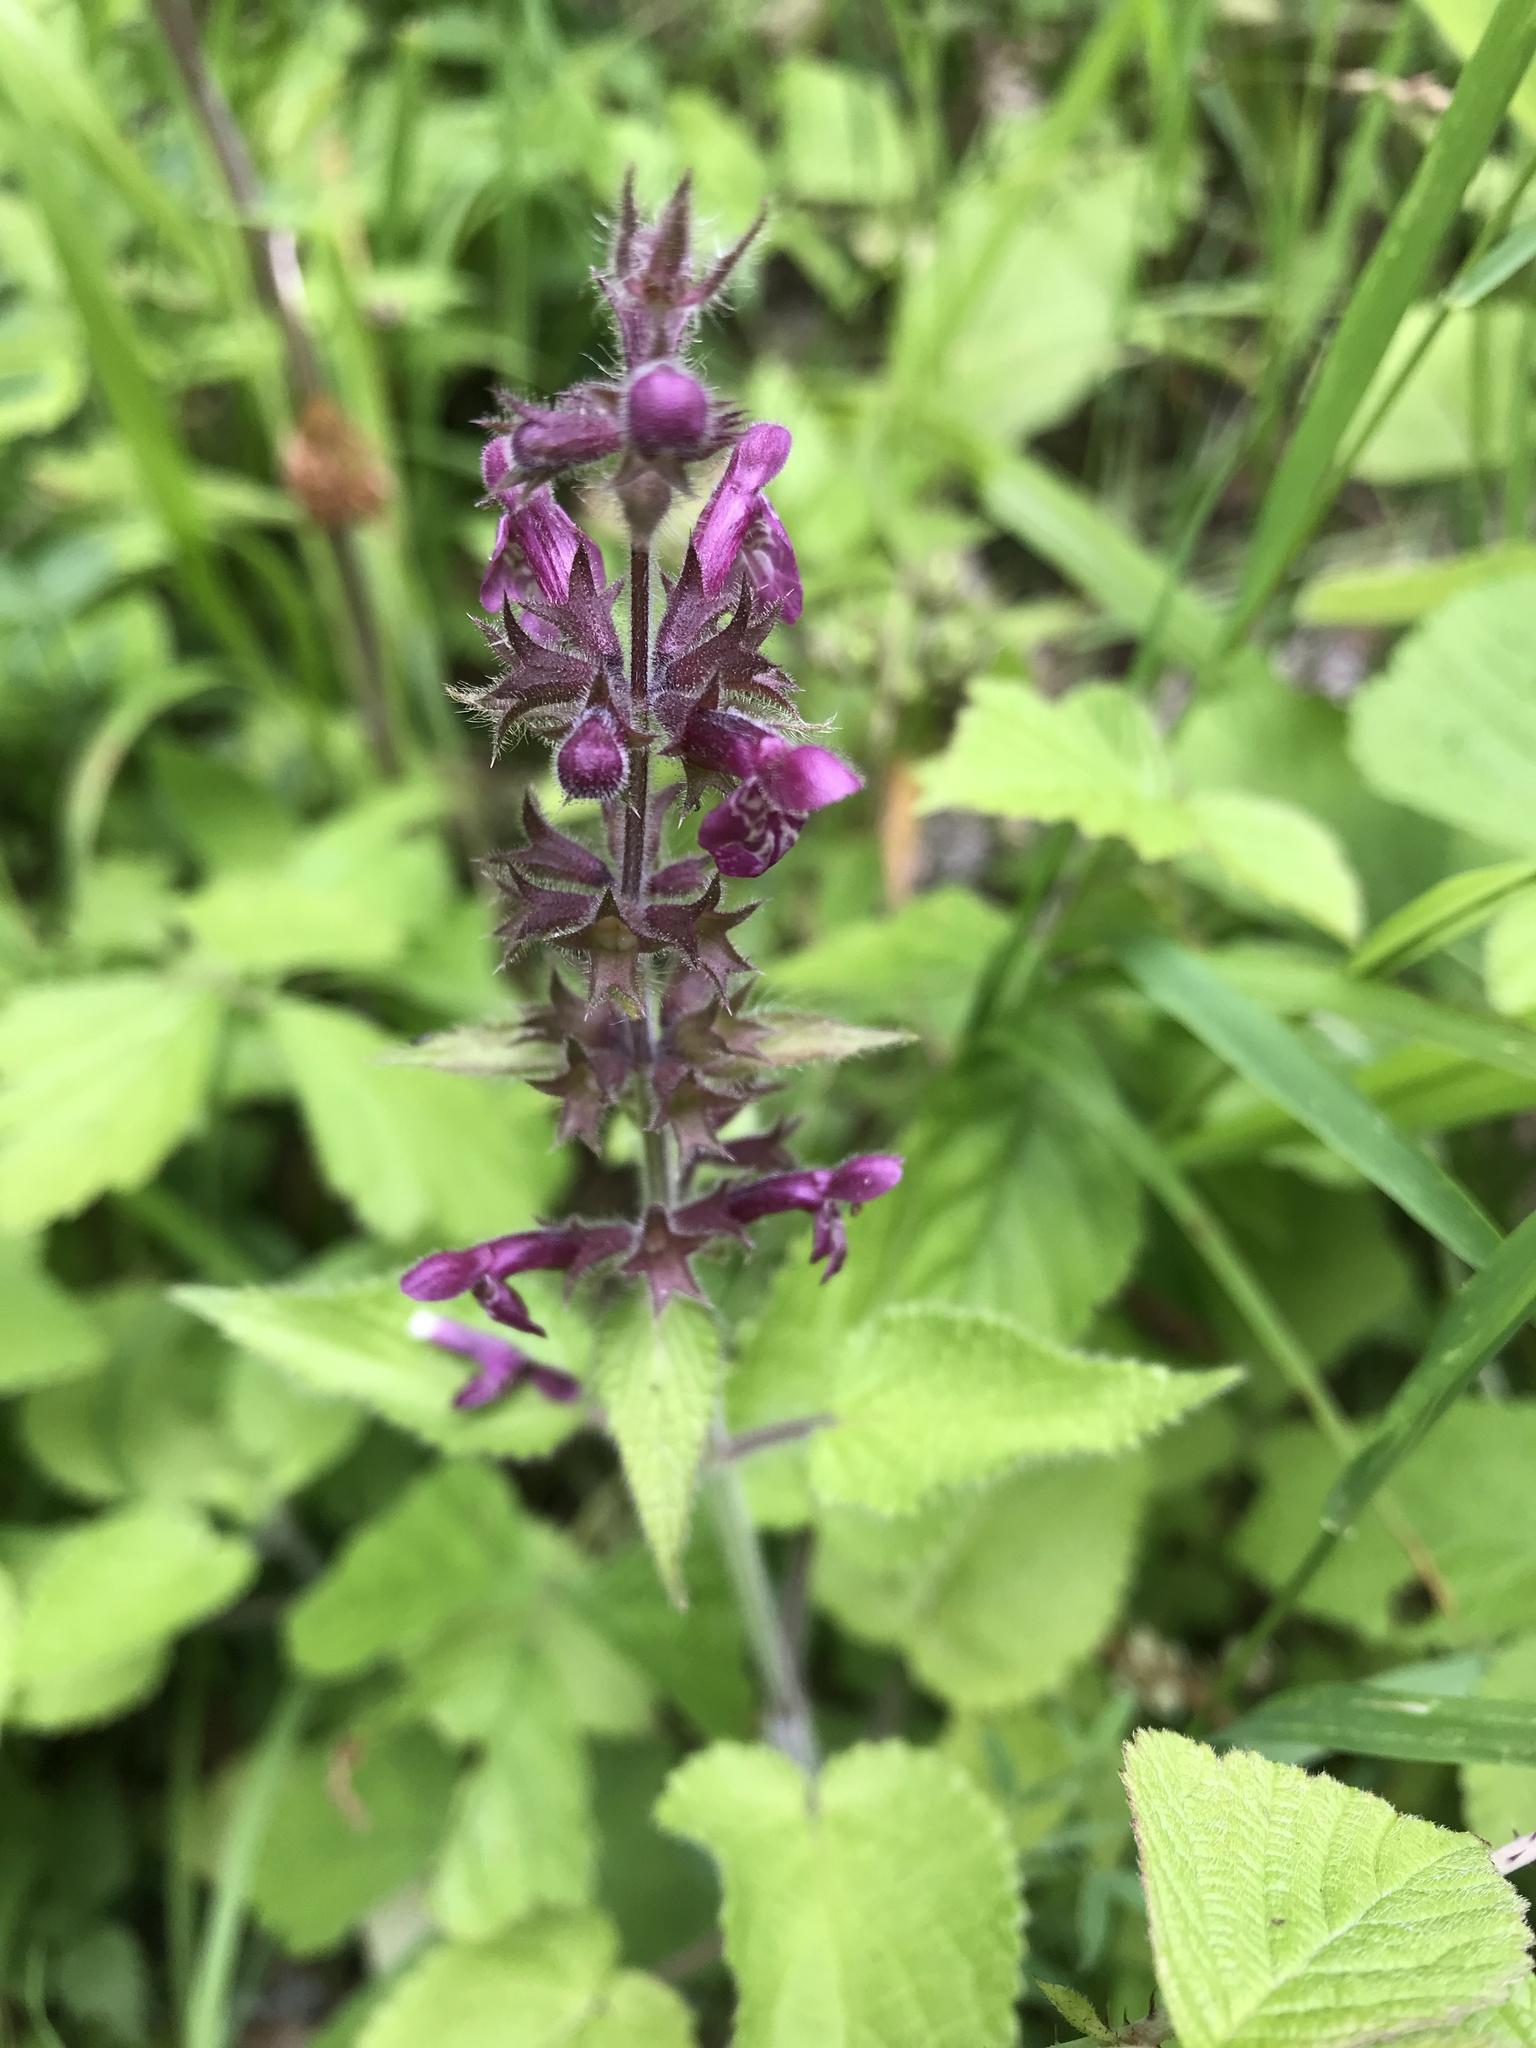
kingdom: Plantae
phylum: Tracheophyta
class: Magnoliopsida
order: Lamiales
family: Lamiaceae
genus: Stachys
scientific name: Stachys sylvatica
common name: Hedge woundwort
